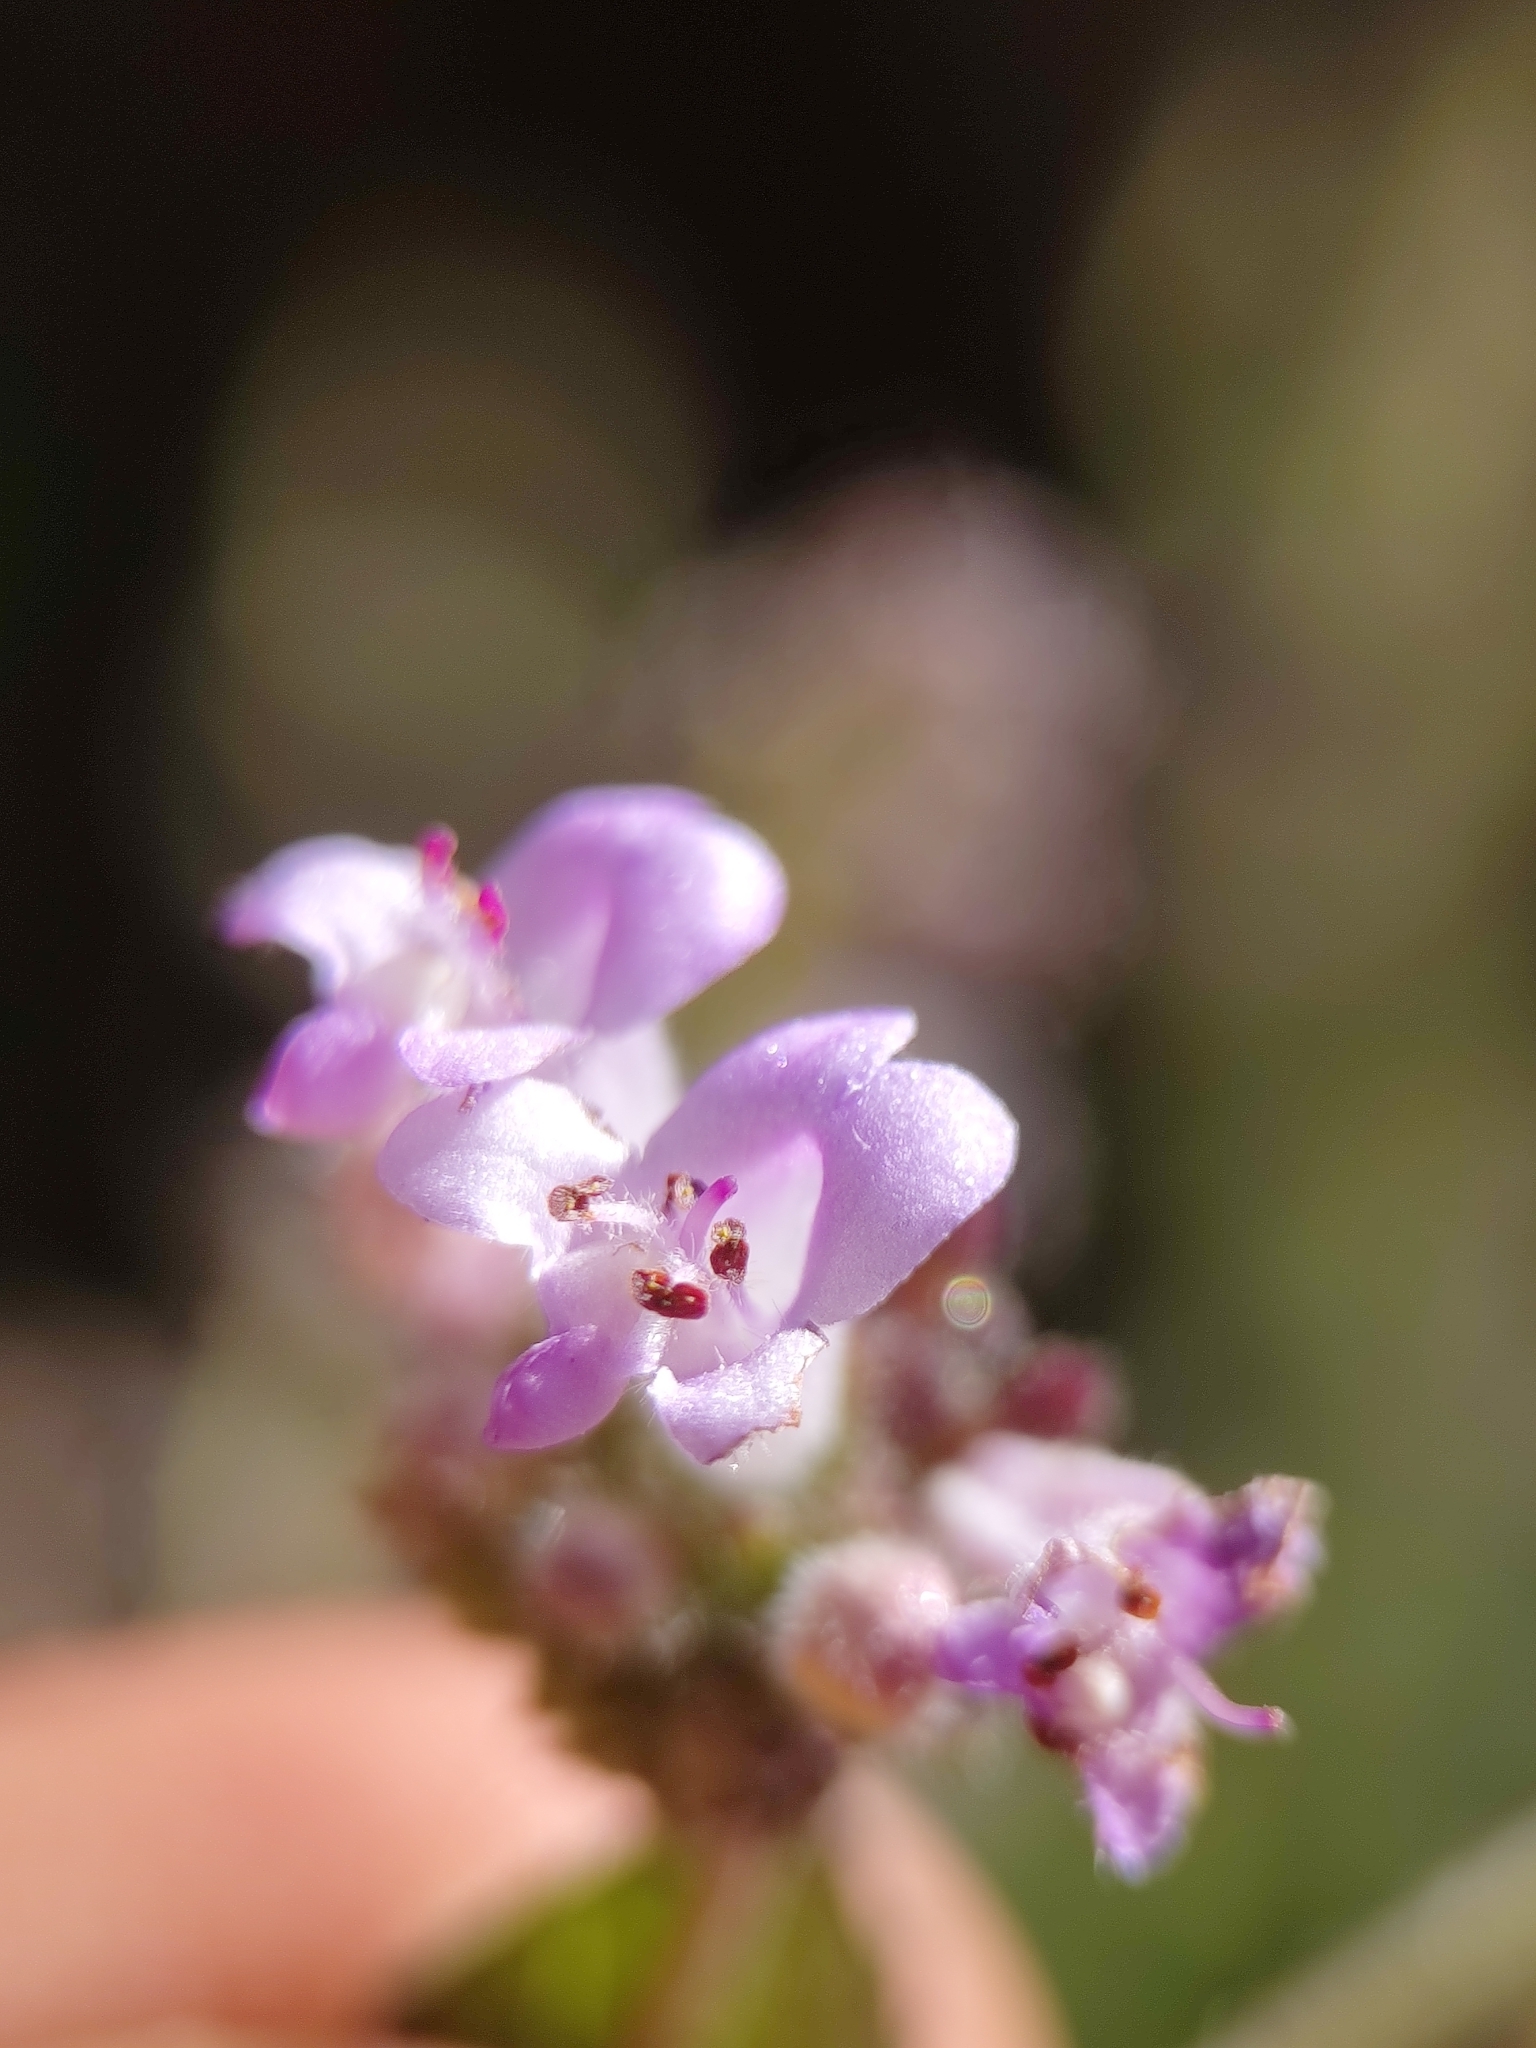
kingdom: Plantae
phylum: Tracheophyta
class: Magnoliopsida
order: Lamiales
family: Lamiaceae
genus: Mesosphaerum
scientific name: Mesosphaerum urticoides
